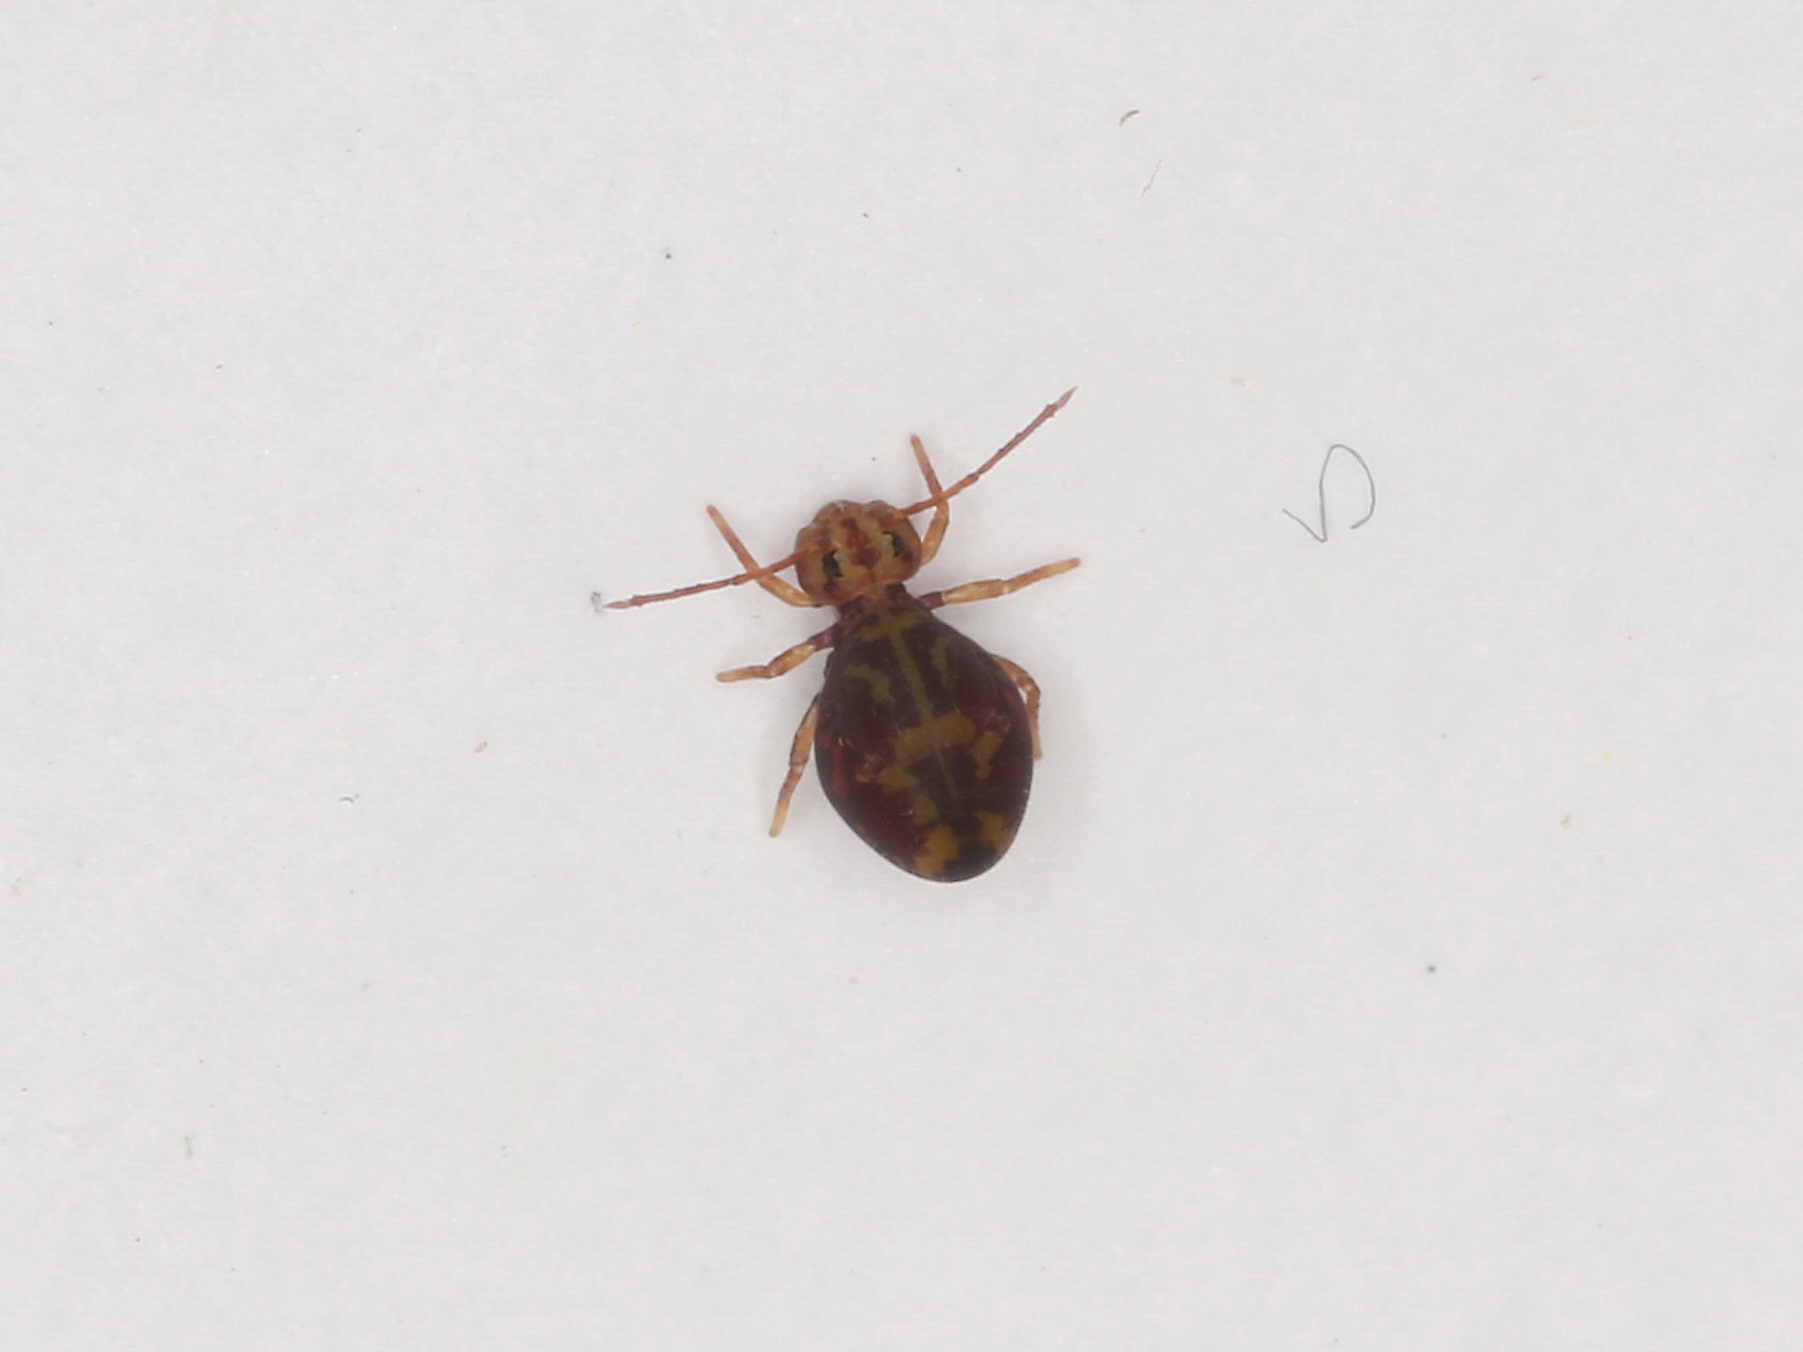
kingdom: Animalia
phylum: Arthropoda
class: Collembola
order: Symphypleona
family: Dicyrtomidae
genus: Dicyrtomina
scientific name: Dicyrtomina ornata
